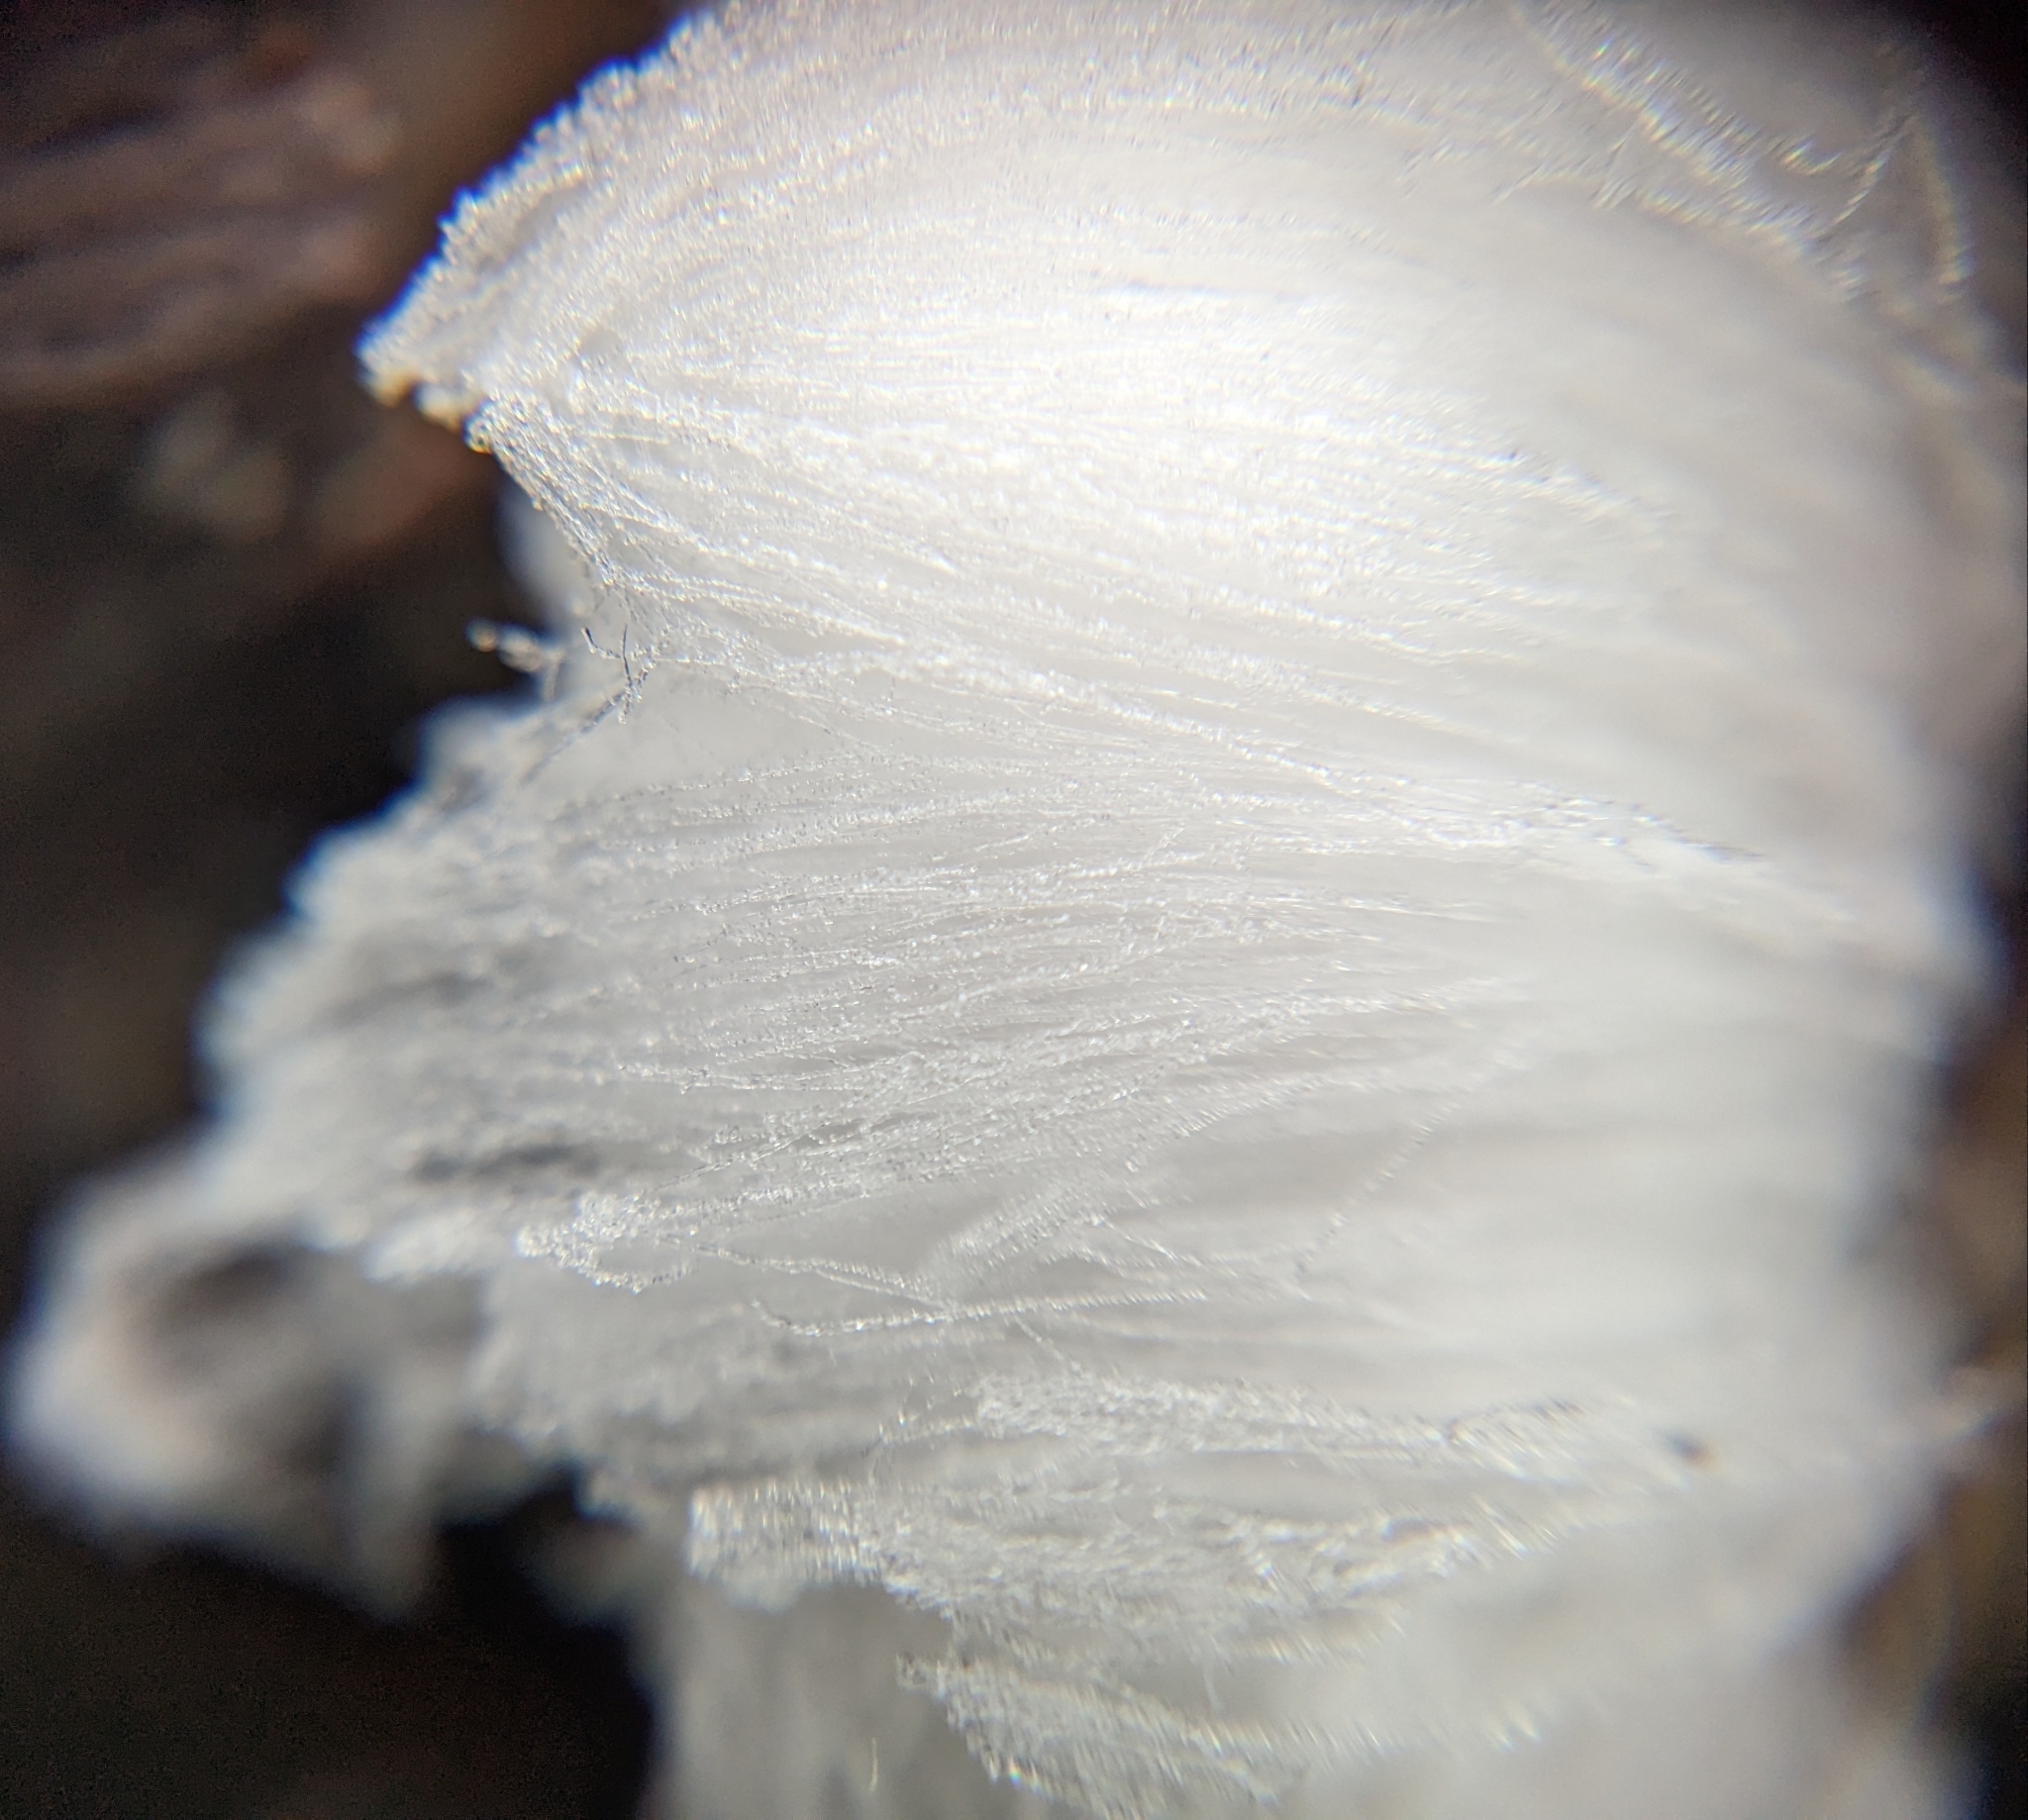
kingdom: Fungi
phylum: Basidiomycota
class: Agaricomycetes
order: Auriculariales
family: Auriculariaceae
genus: Exidiopsis
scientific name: Exidiopsis effusa
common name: Hair ice crust
